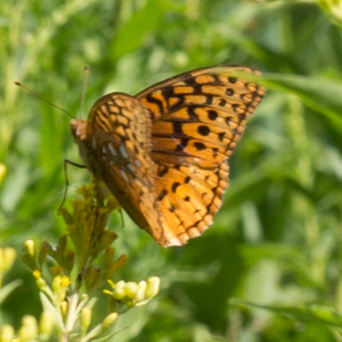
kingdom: Animalia
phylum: Arthropoda
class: Insecta
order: Lepidoptera
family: Nymphalidae
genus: Speyeria
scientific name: Speyeria cybele
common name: Great spangled fritillary
